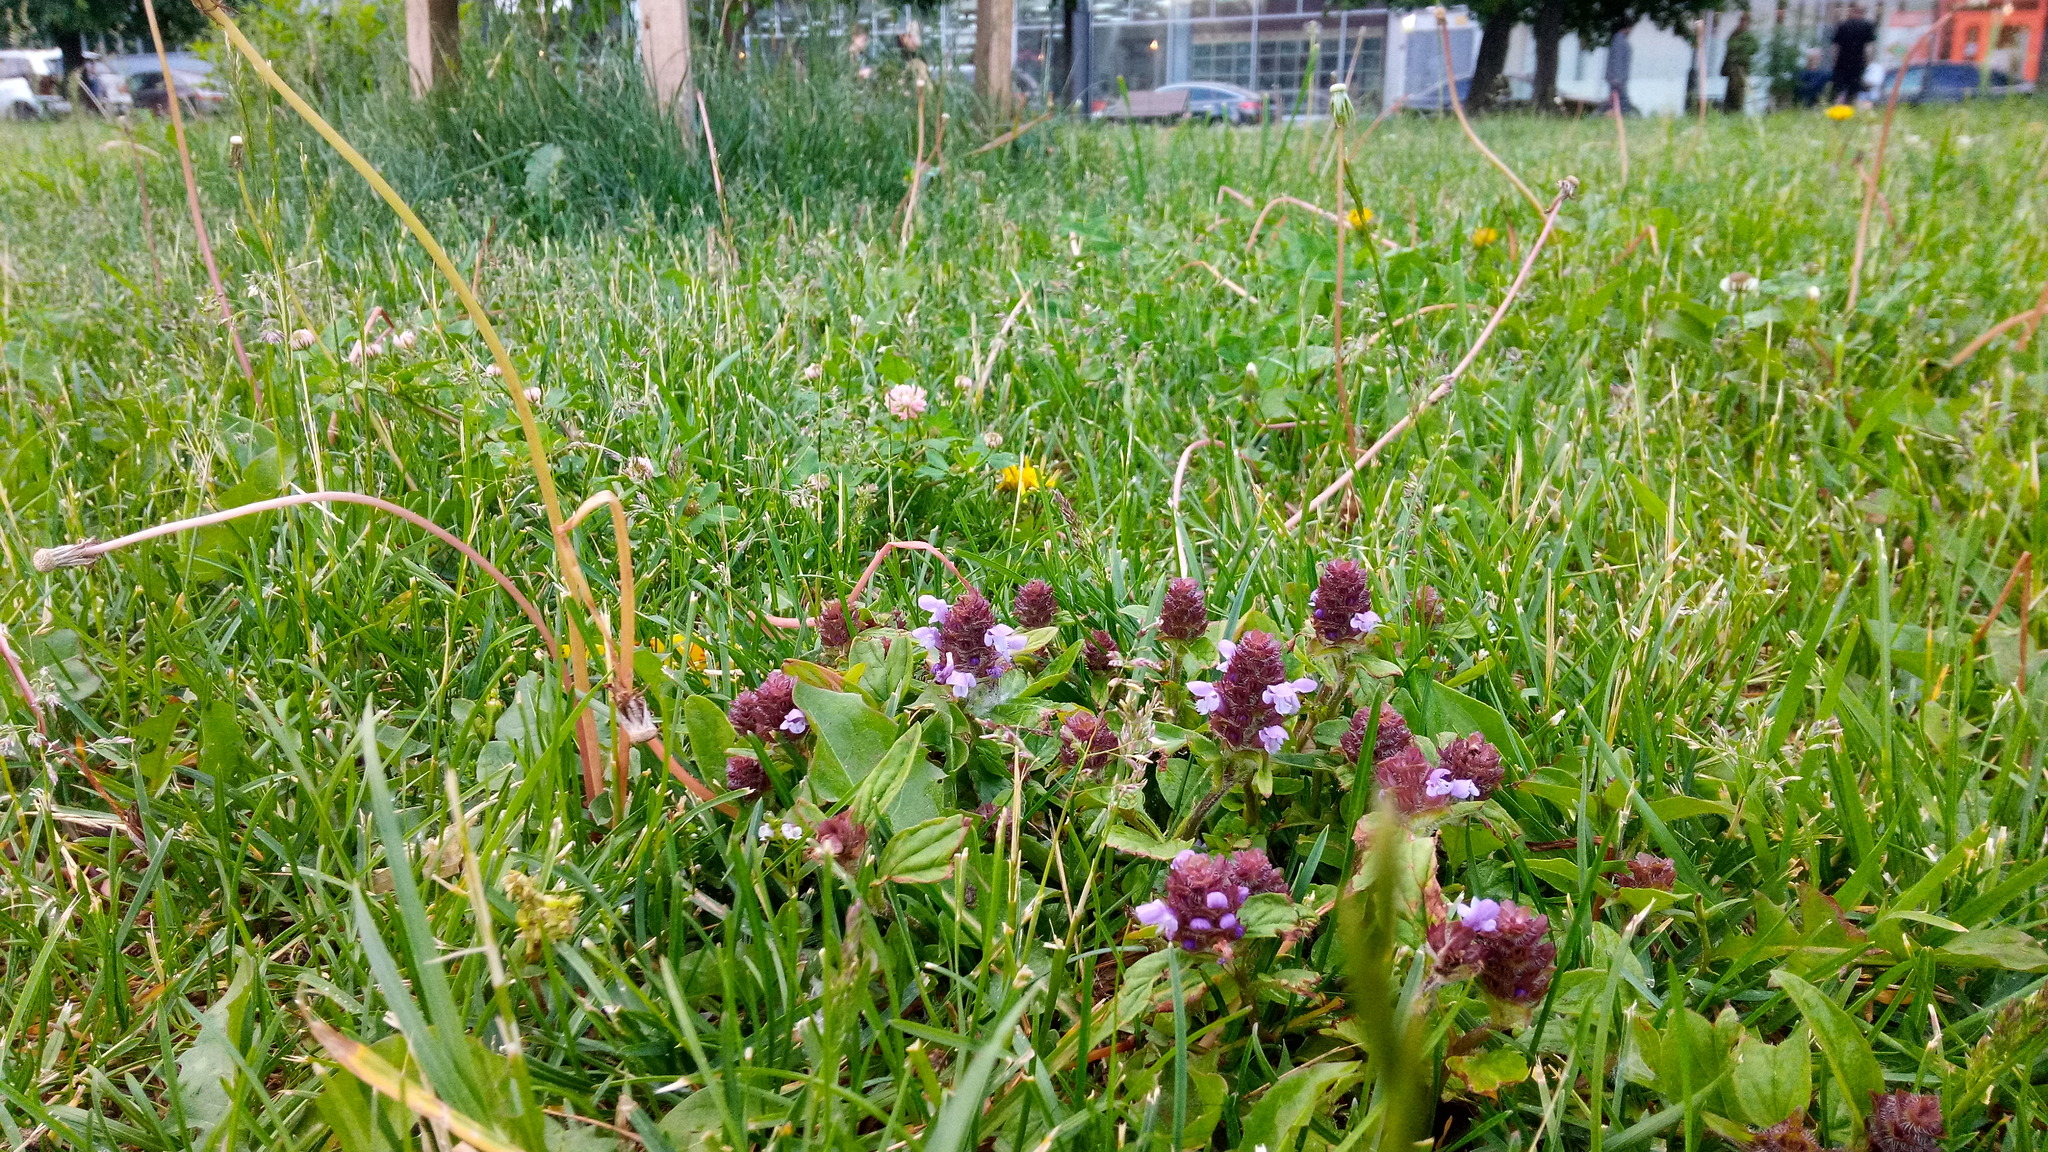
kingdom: Plantae
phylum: Tracheophyta
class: Magnoliopsida
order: Lamiales
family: Lamiaceae
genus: Prunella
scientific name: Prunella vulgaris
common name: Heal-all
